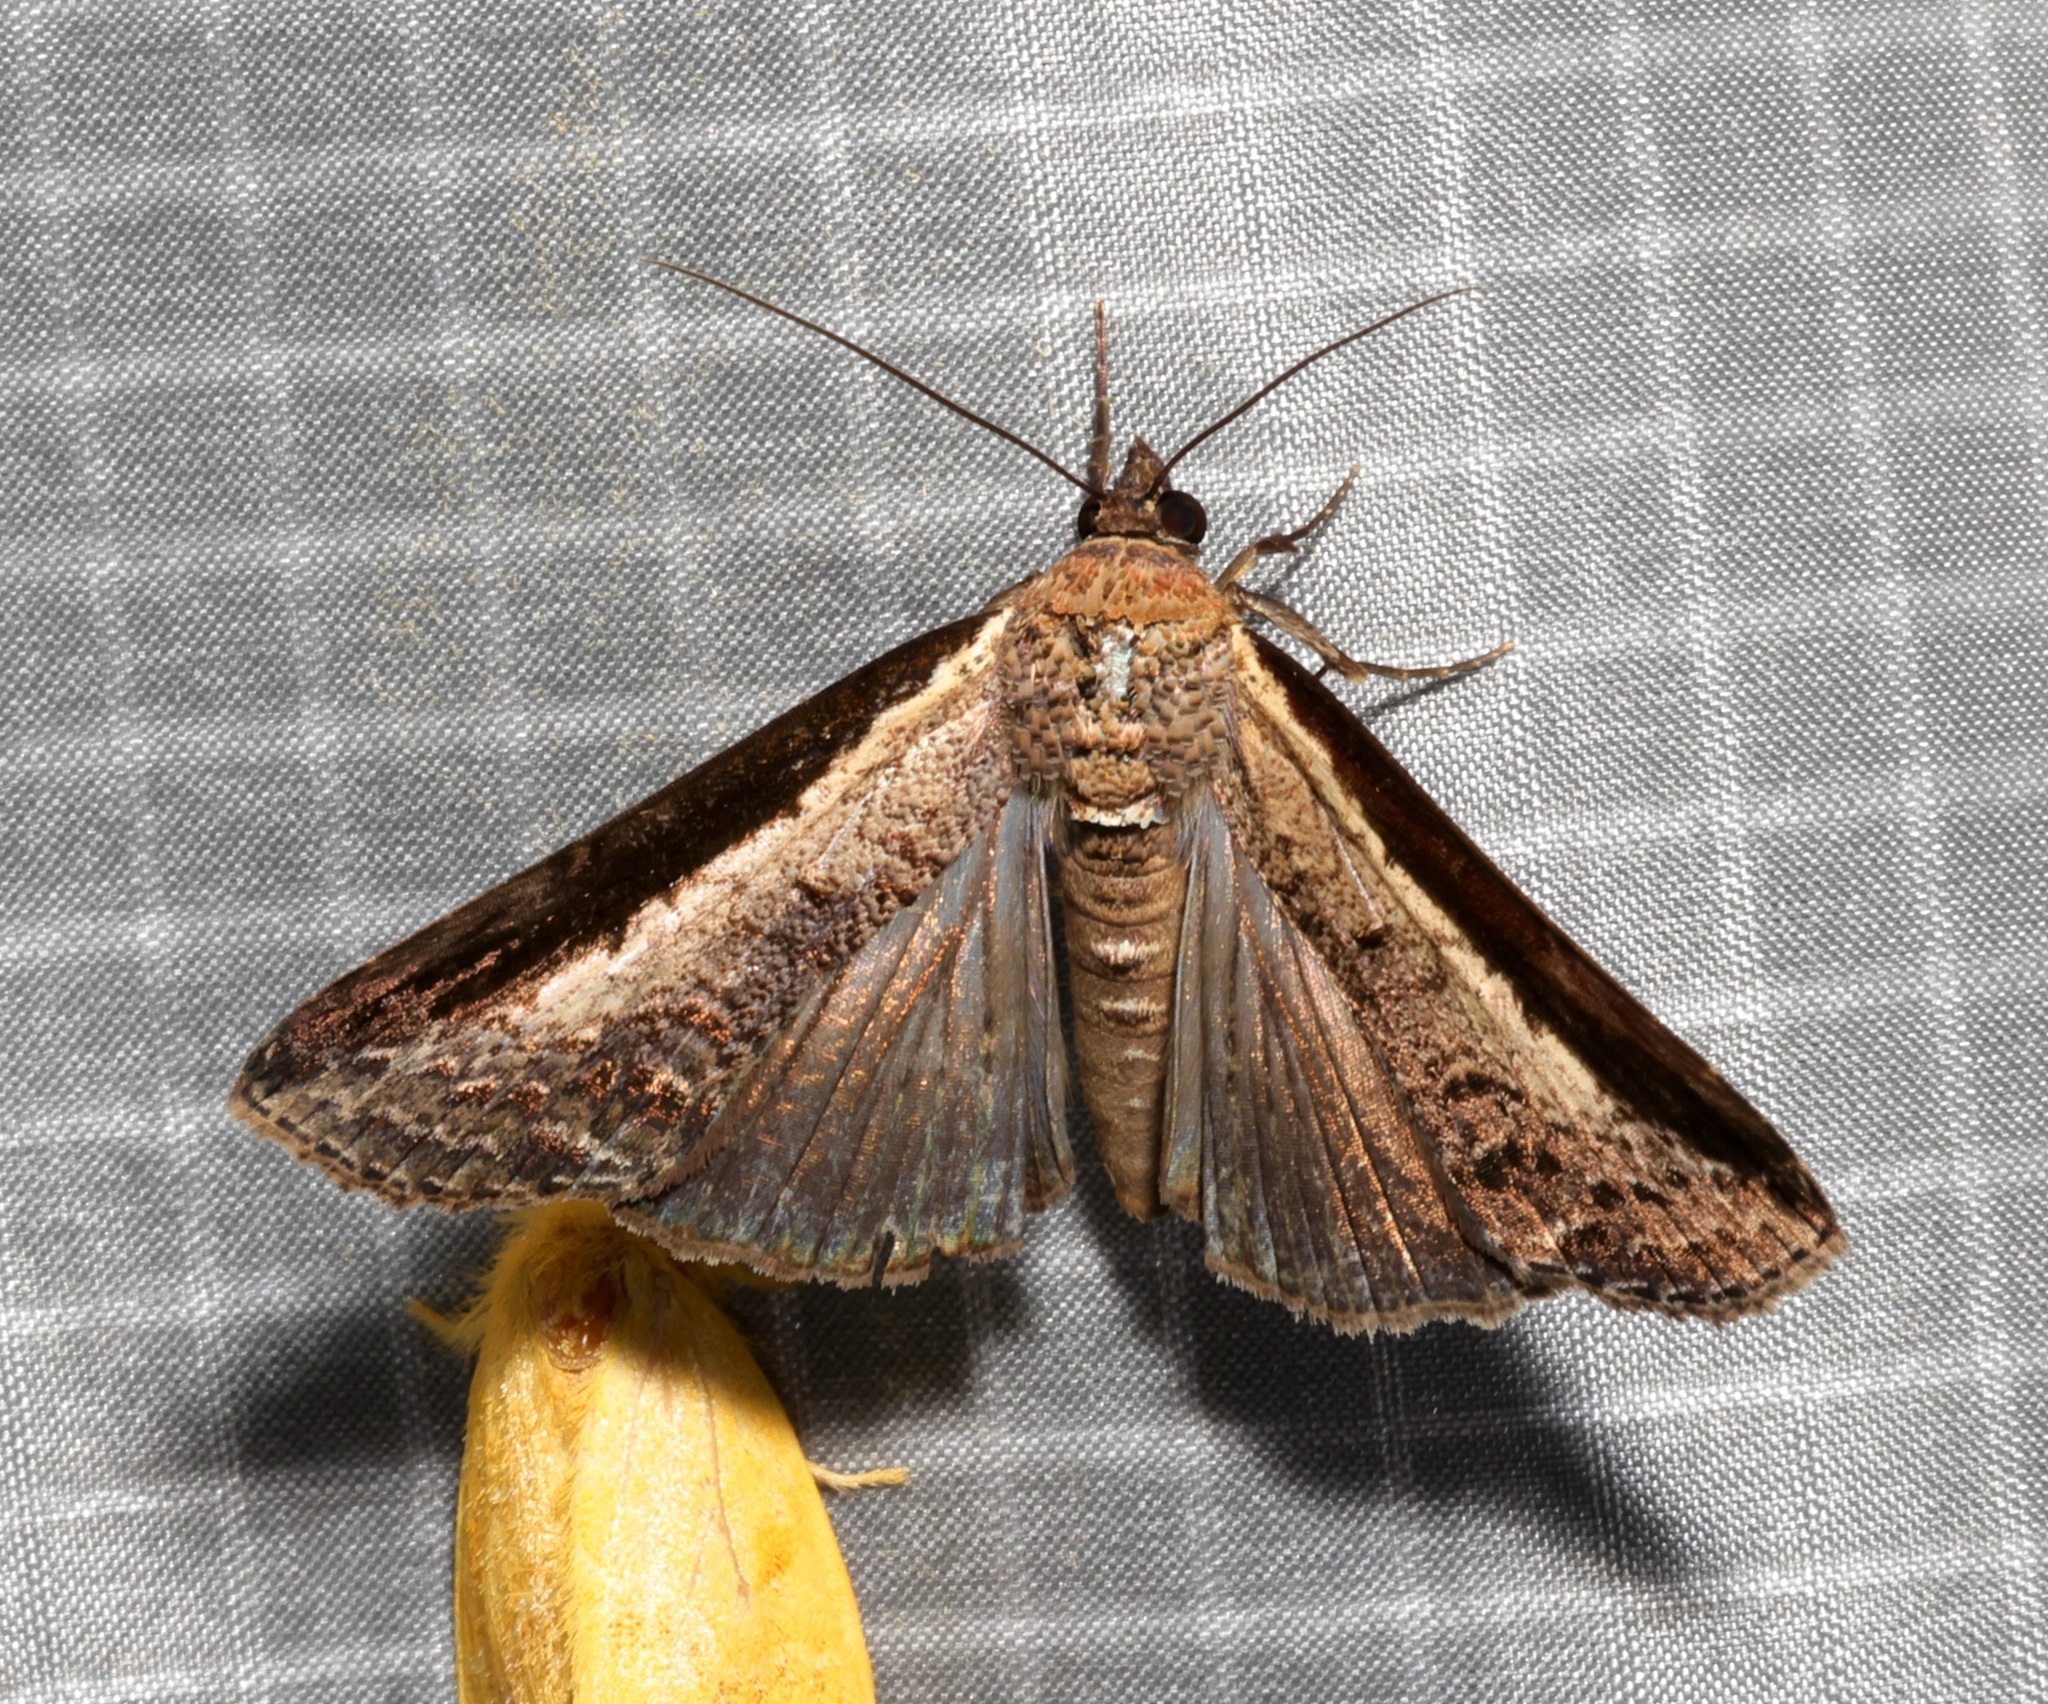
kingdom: Animalia
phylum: Arthropoda
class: Insecta
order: Lepidoptera
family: Euteliidae
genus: Lophoptera
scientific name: Lophoptera squammigera
